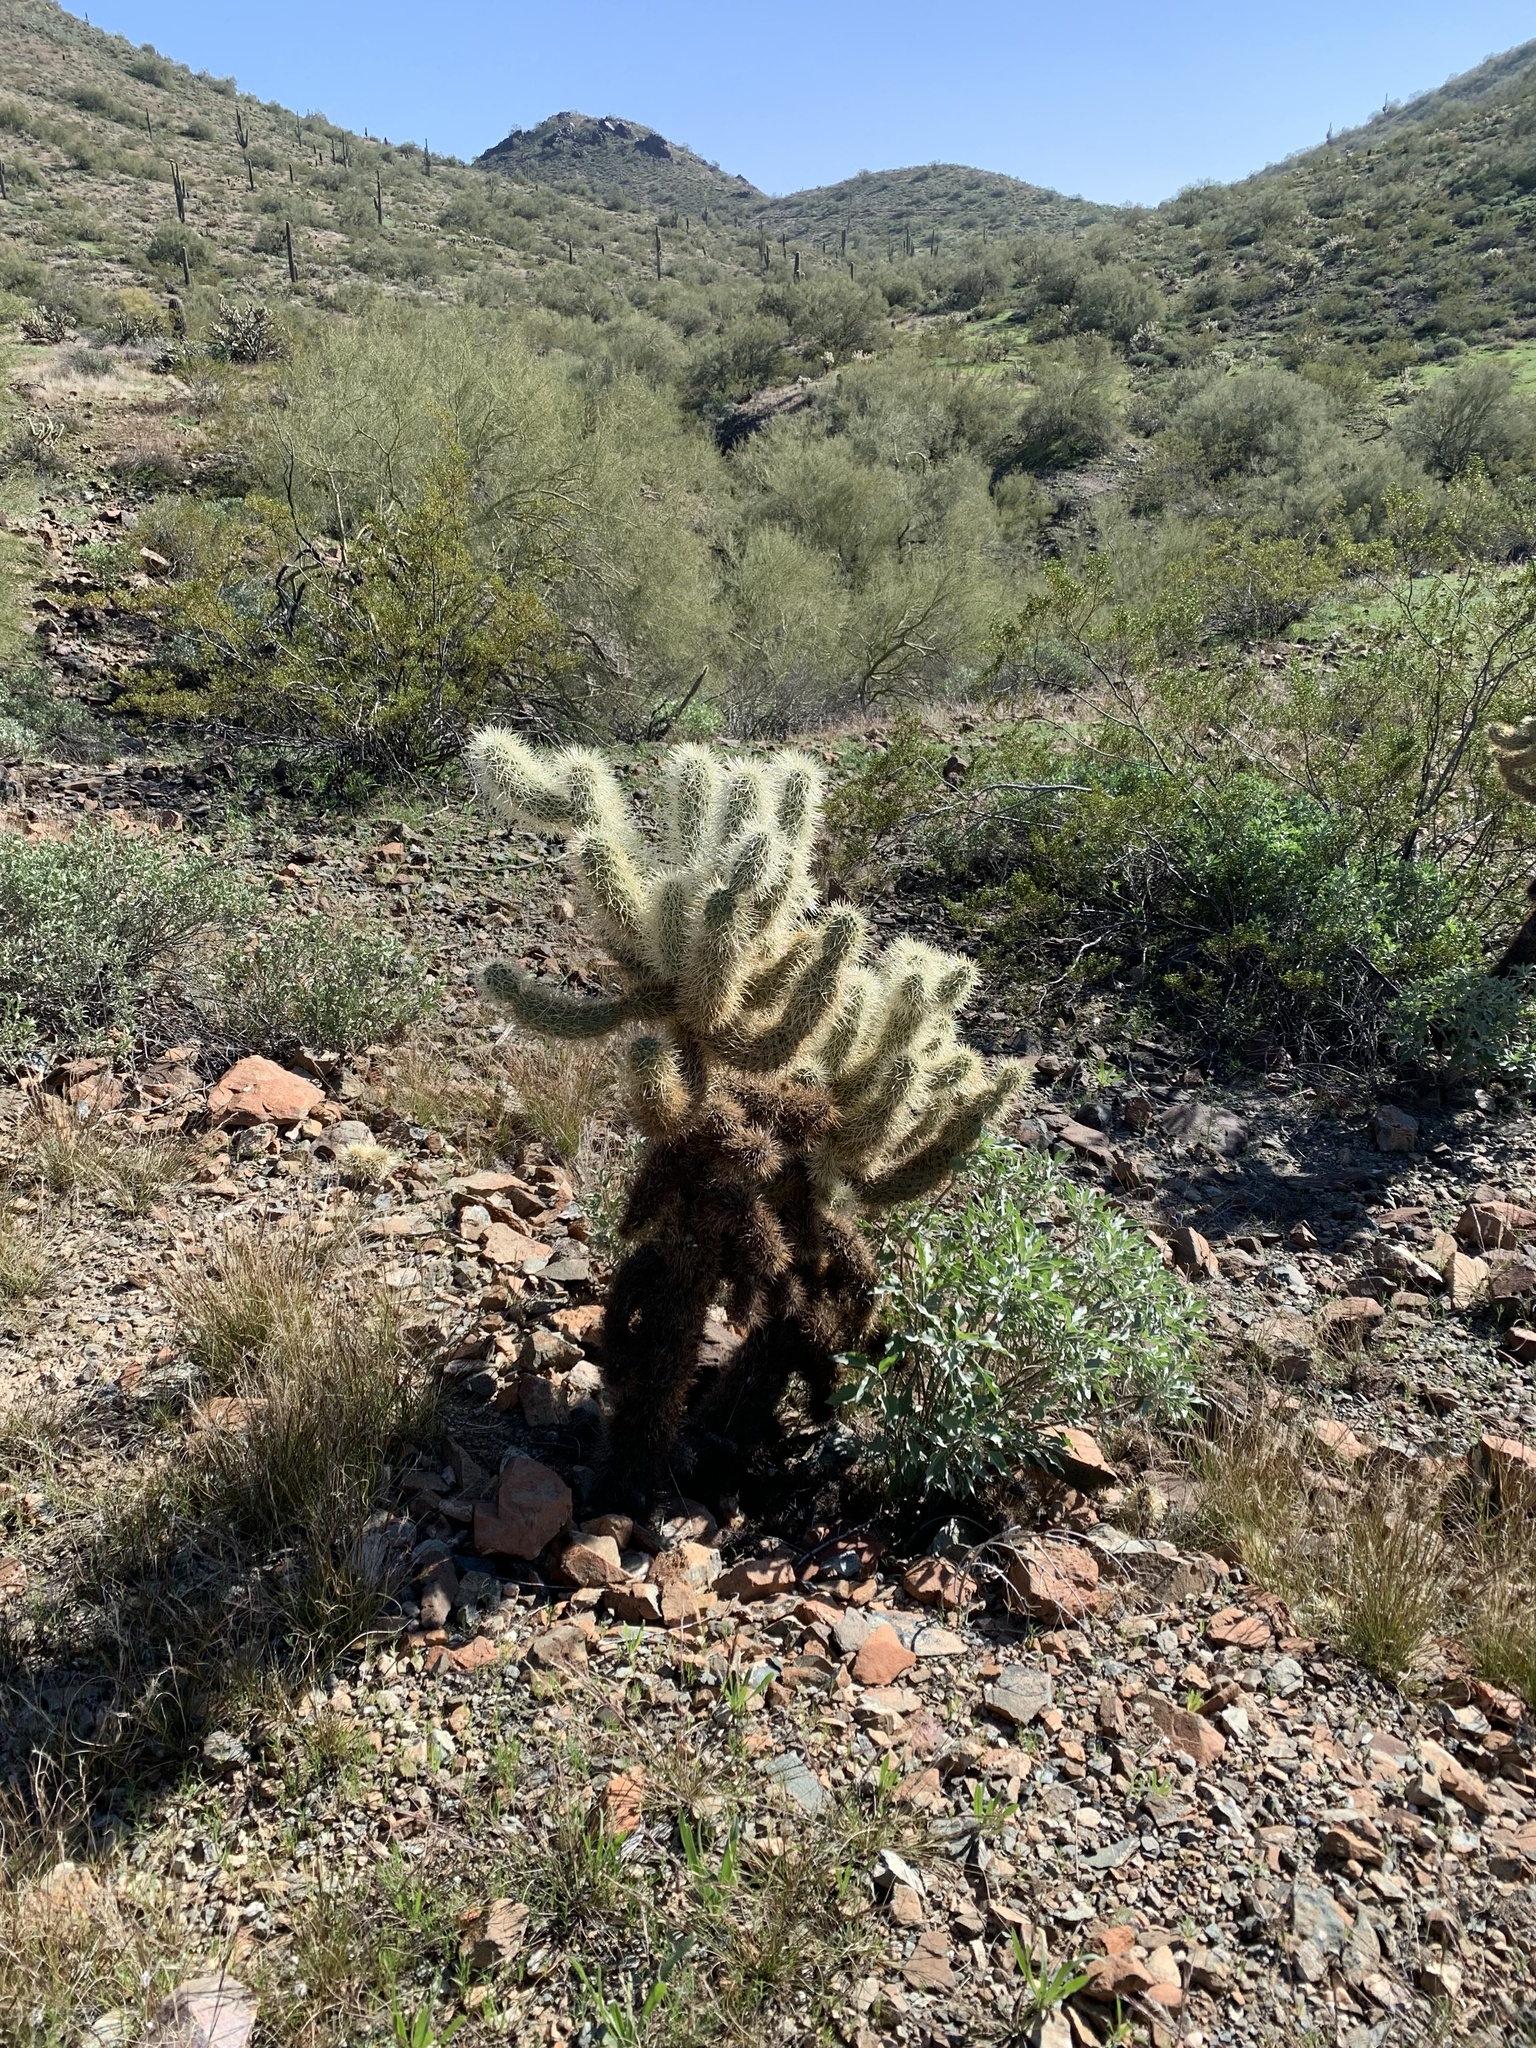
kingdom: Plantae
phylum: Tracheophyta
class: Magnoliopsida
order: Caryophyllales
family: Cactaceae
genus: Cylindropuntia
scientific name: Cylindropuntia fosbergii
